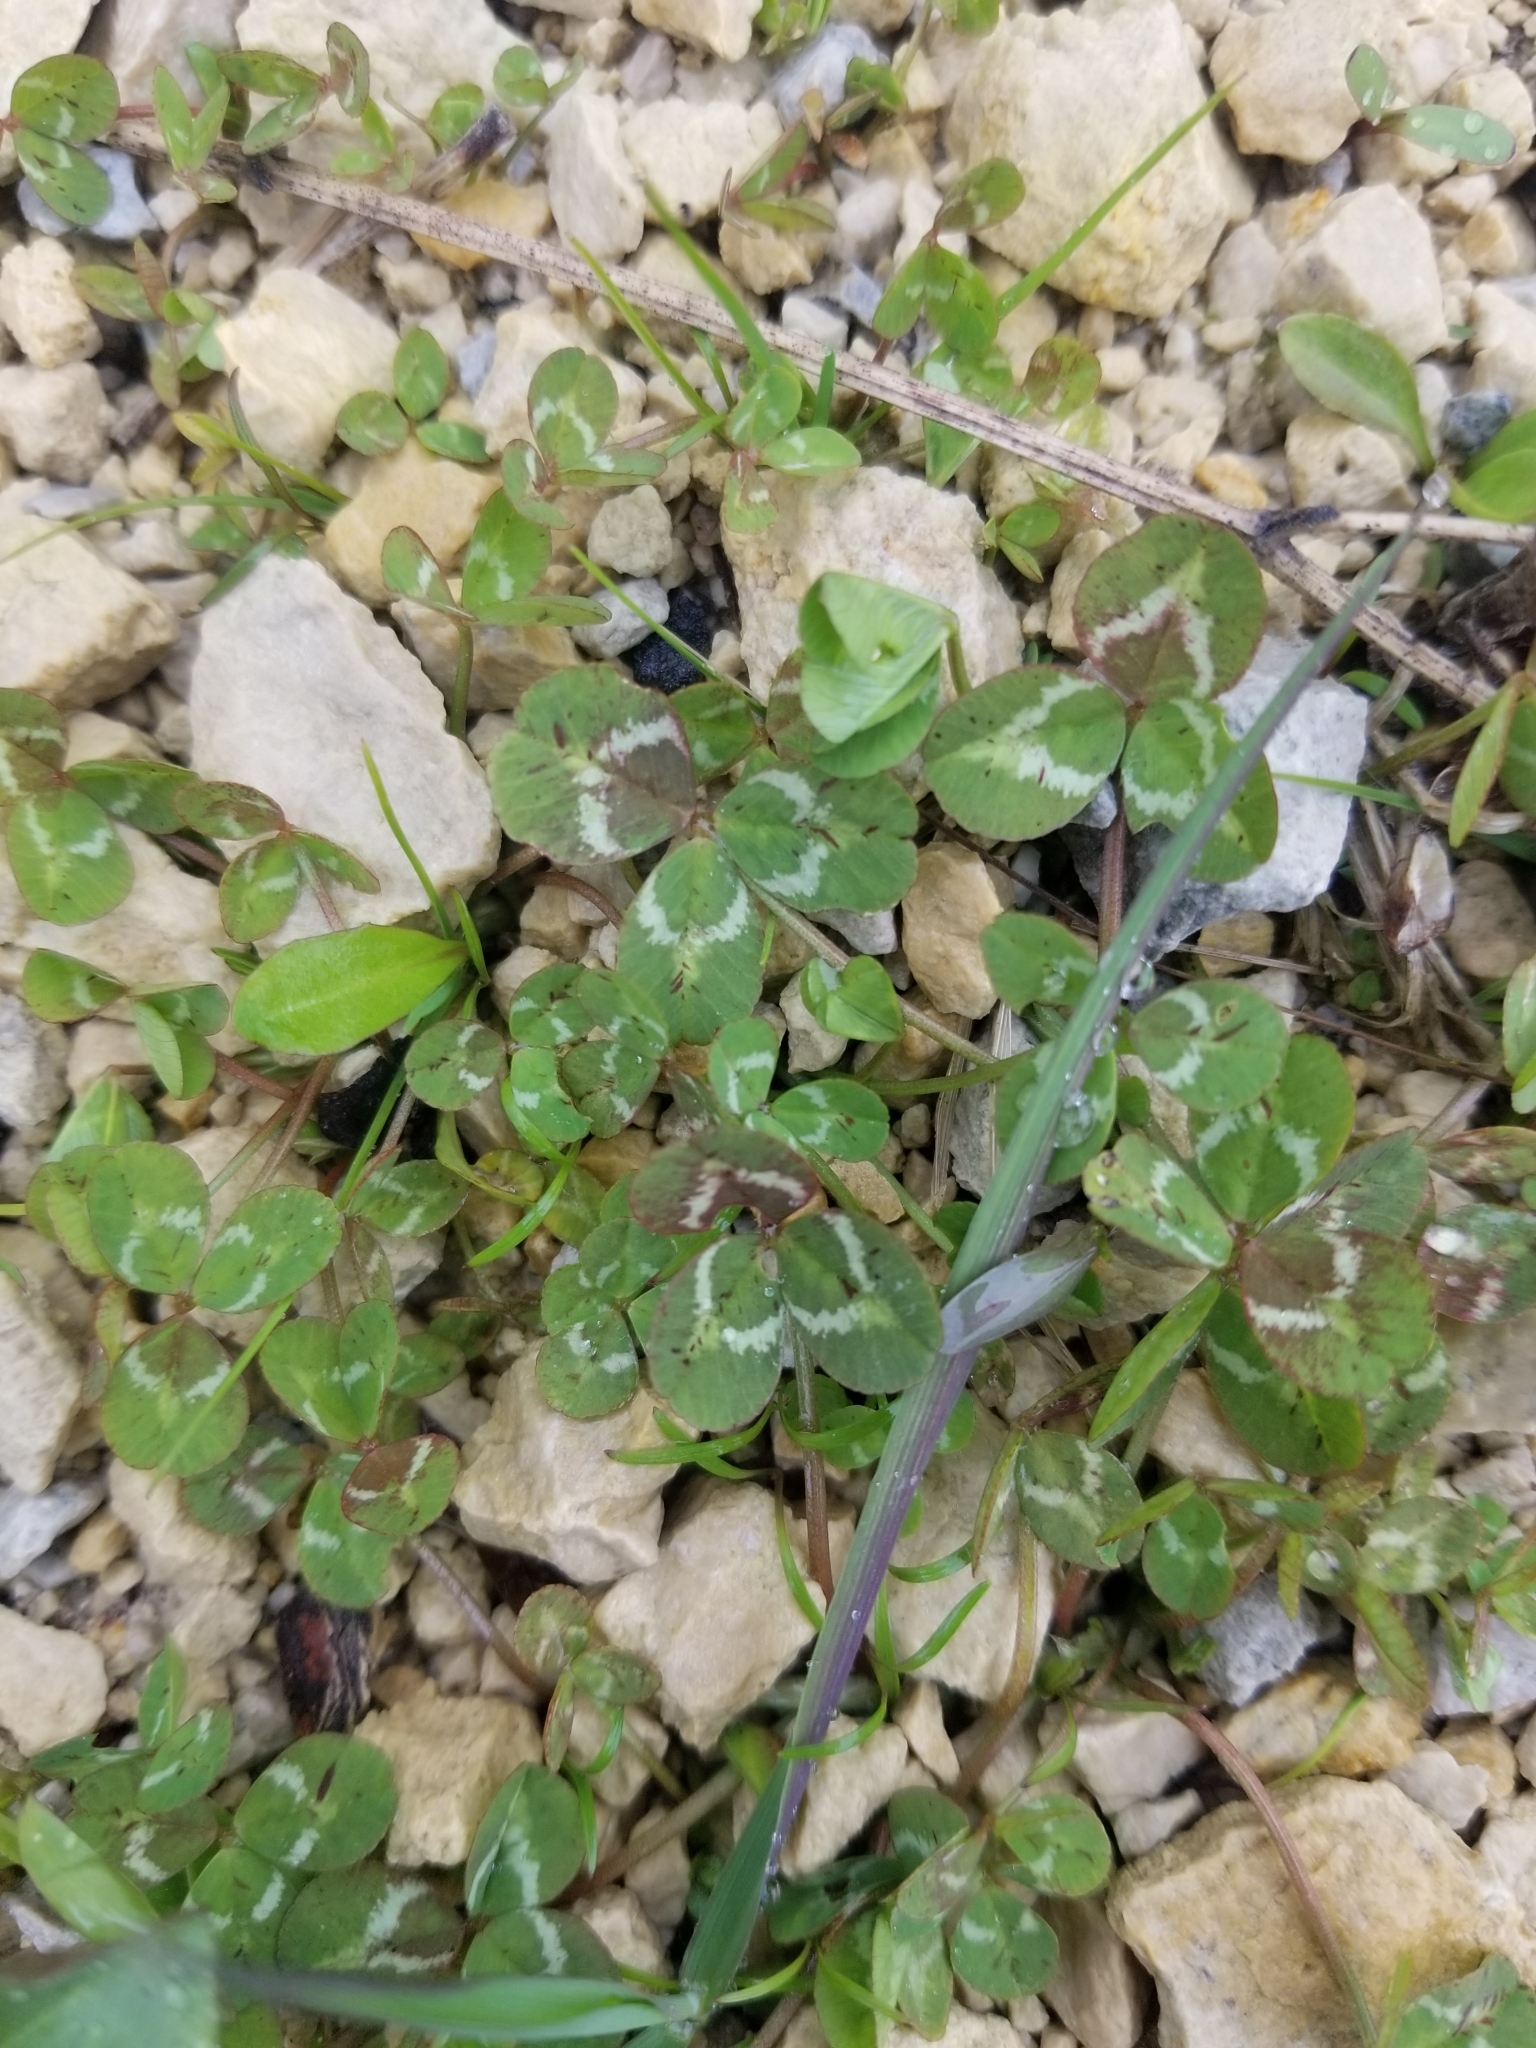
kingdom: Plantae
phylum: Tracheophyta
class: Magnoliopsida
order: Fabales
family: Fabaceae
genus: Trifolium
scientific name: Trifolium repens
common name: White clover
